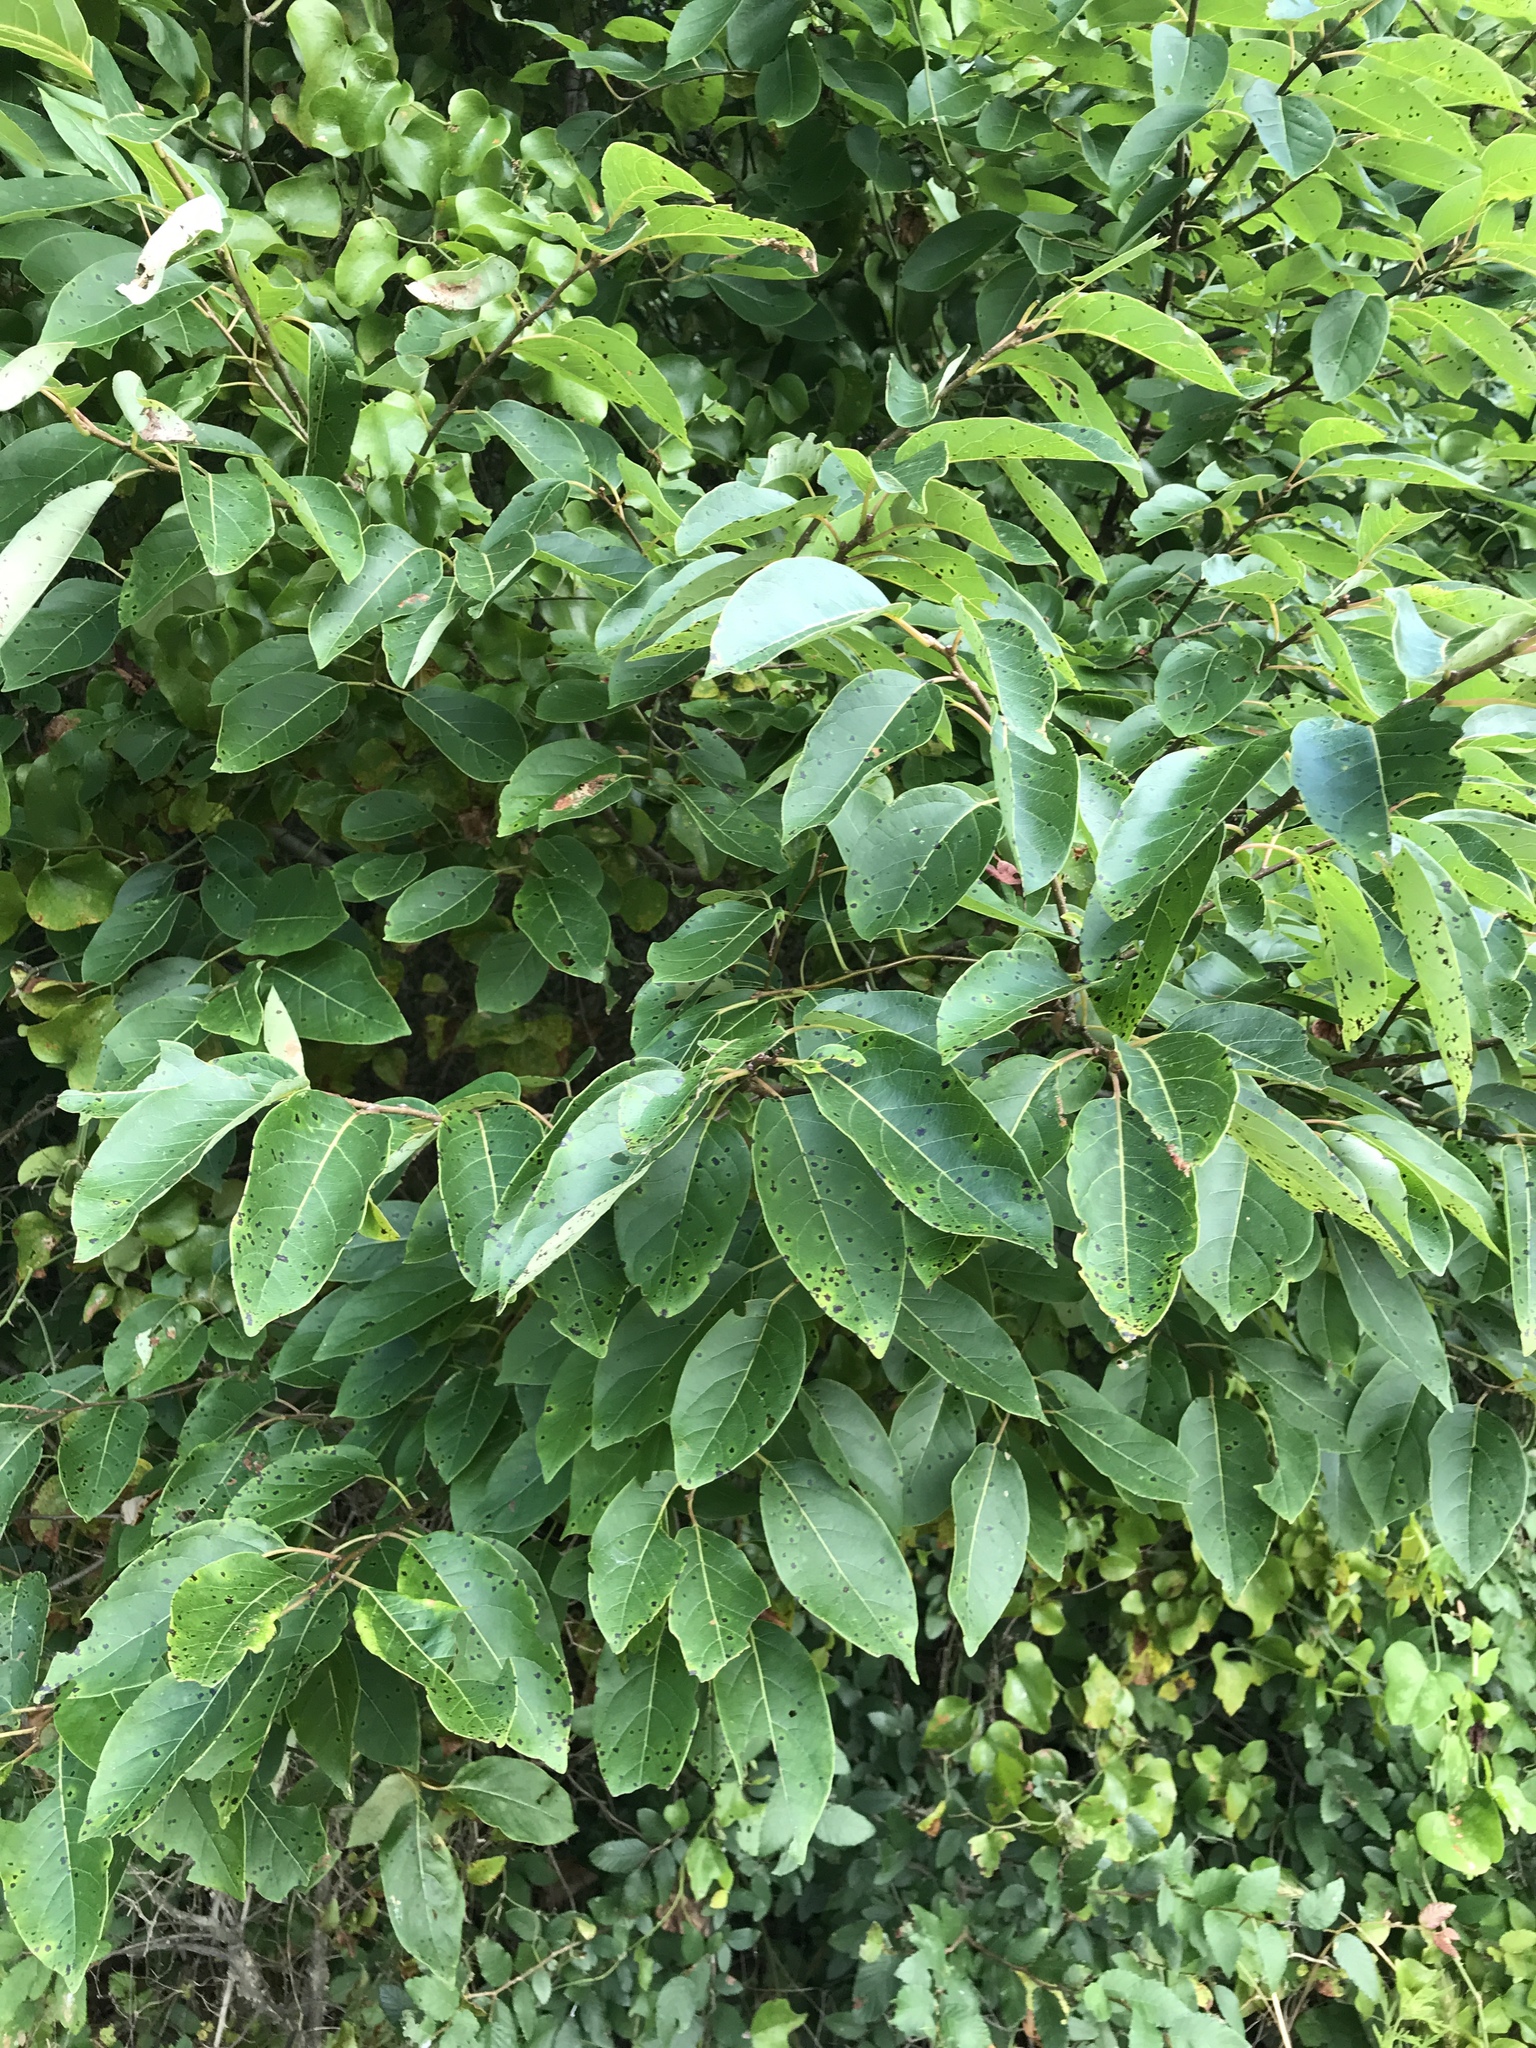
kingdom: Plantae
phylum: Tracheophyta
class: Magnoliopsida
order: Ericales
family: Ebenaceae
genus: Diospyros
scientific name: Diospyros virginiana
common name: Persimmon
